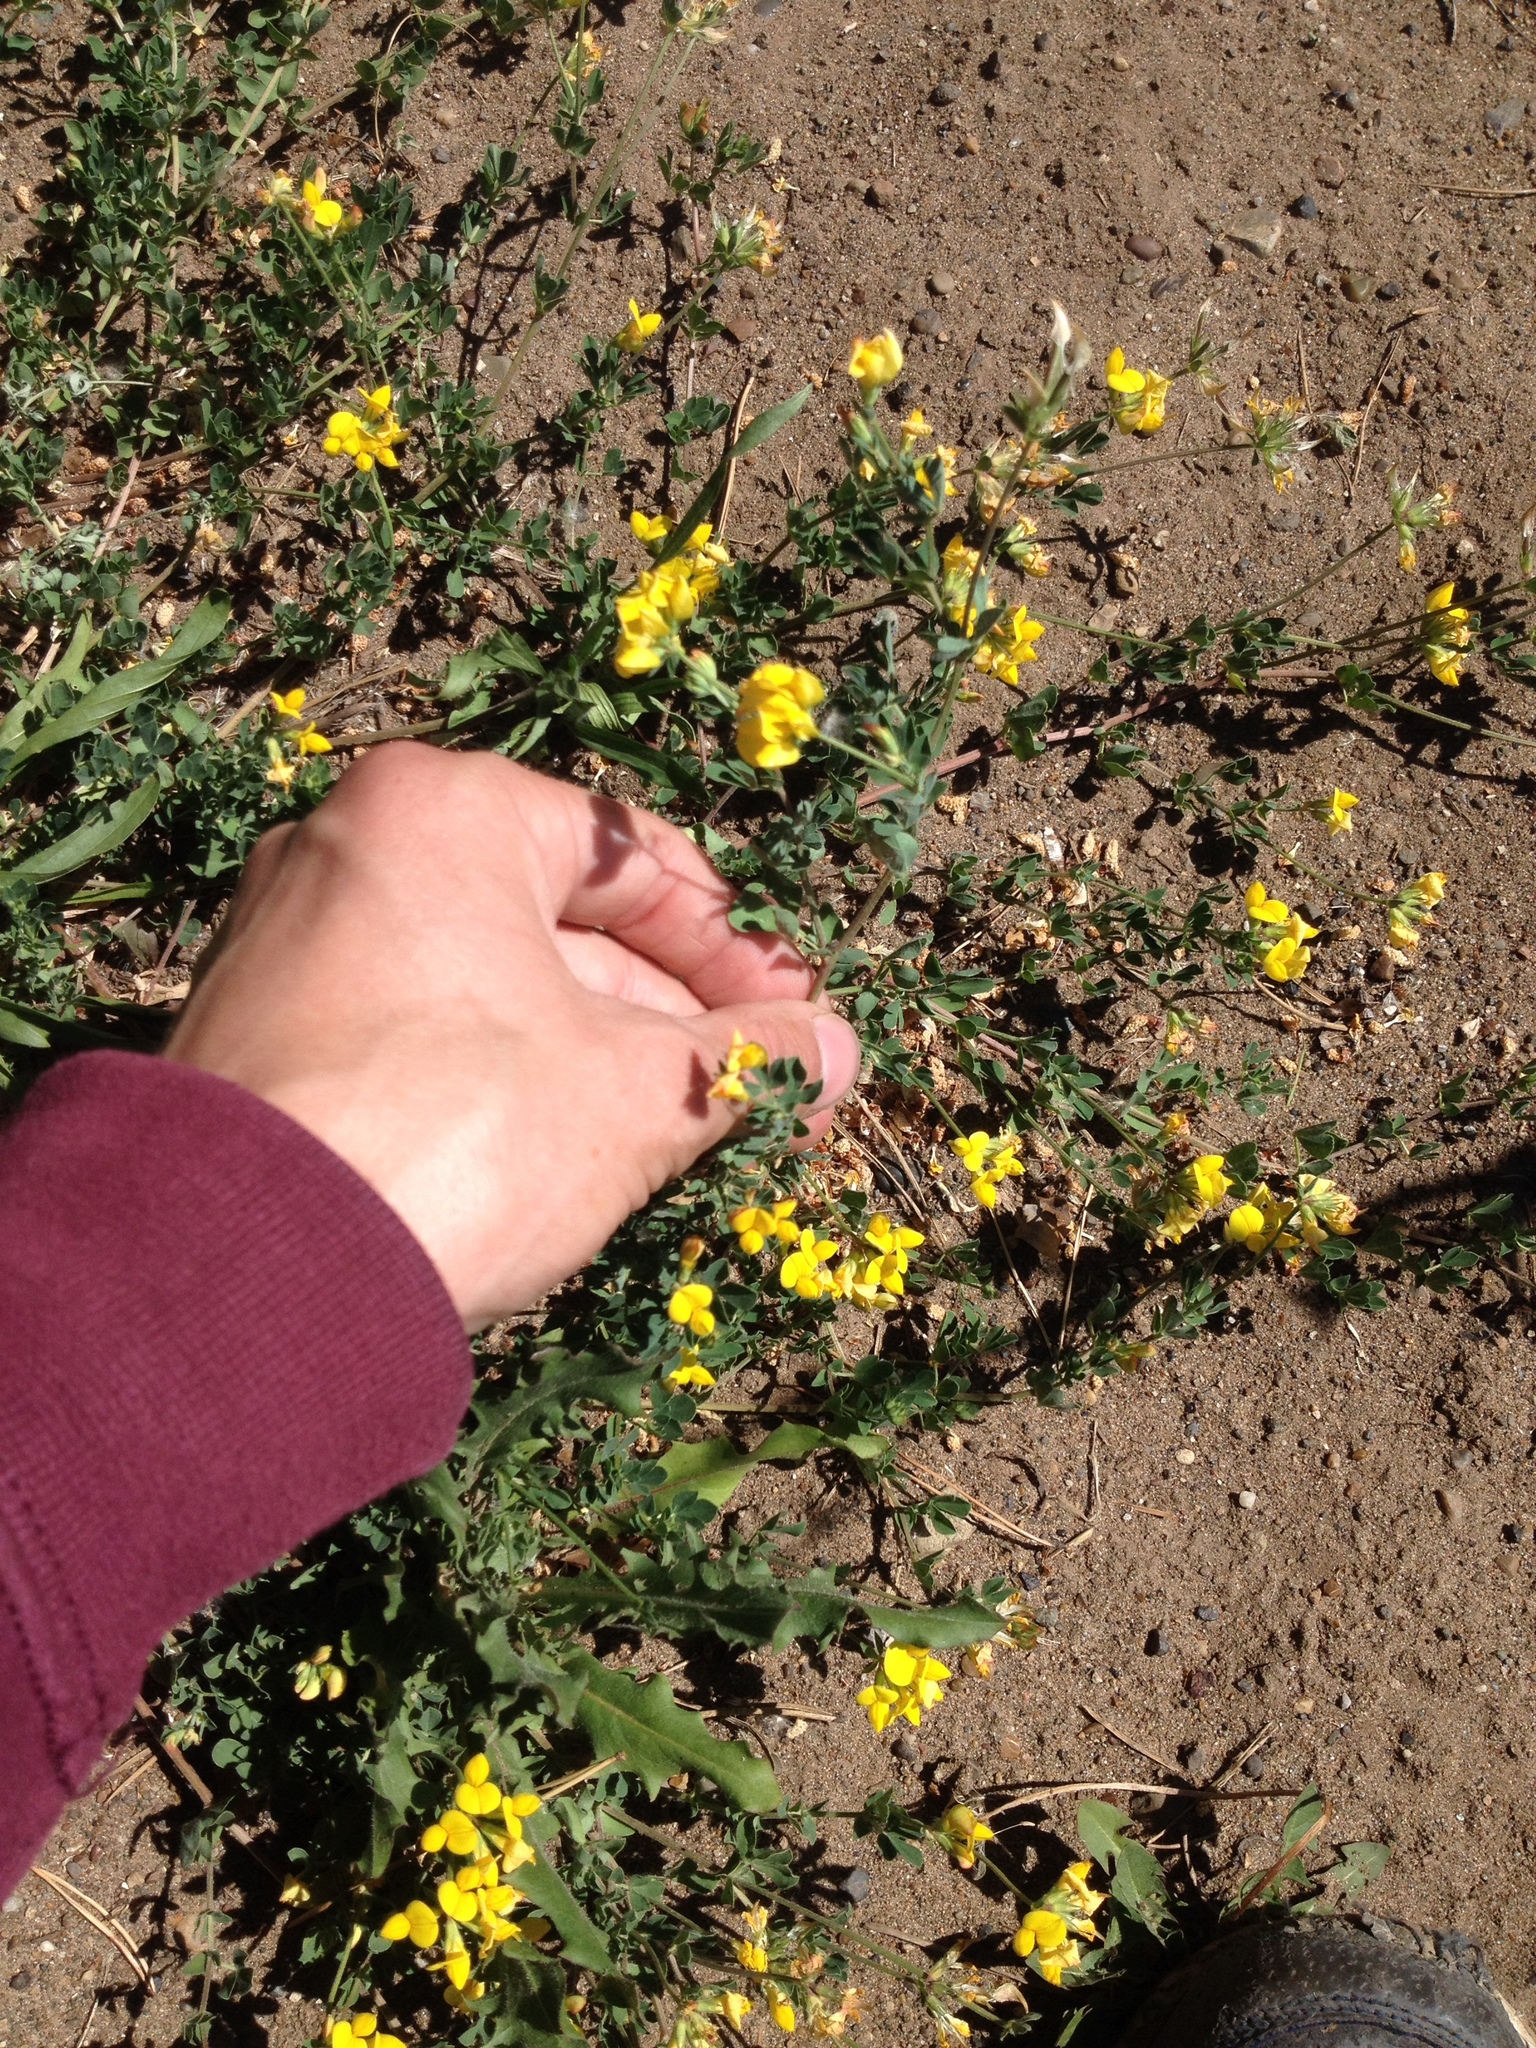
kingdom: Plantae
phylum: Tracheophyta
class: Magnoliopsida
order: Fabales
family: Fabaceae
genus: Lotus
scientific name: Lotus corniculatus
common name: Common bird's-foot-trefoil
